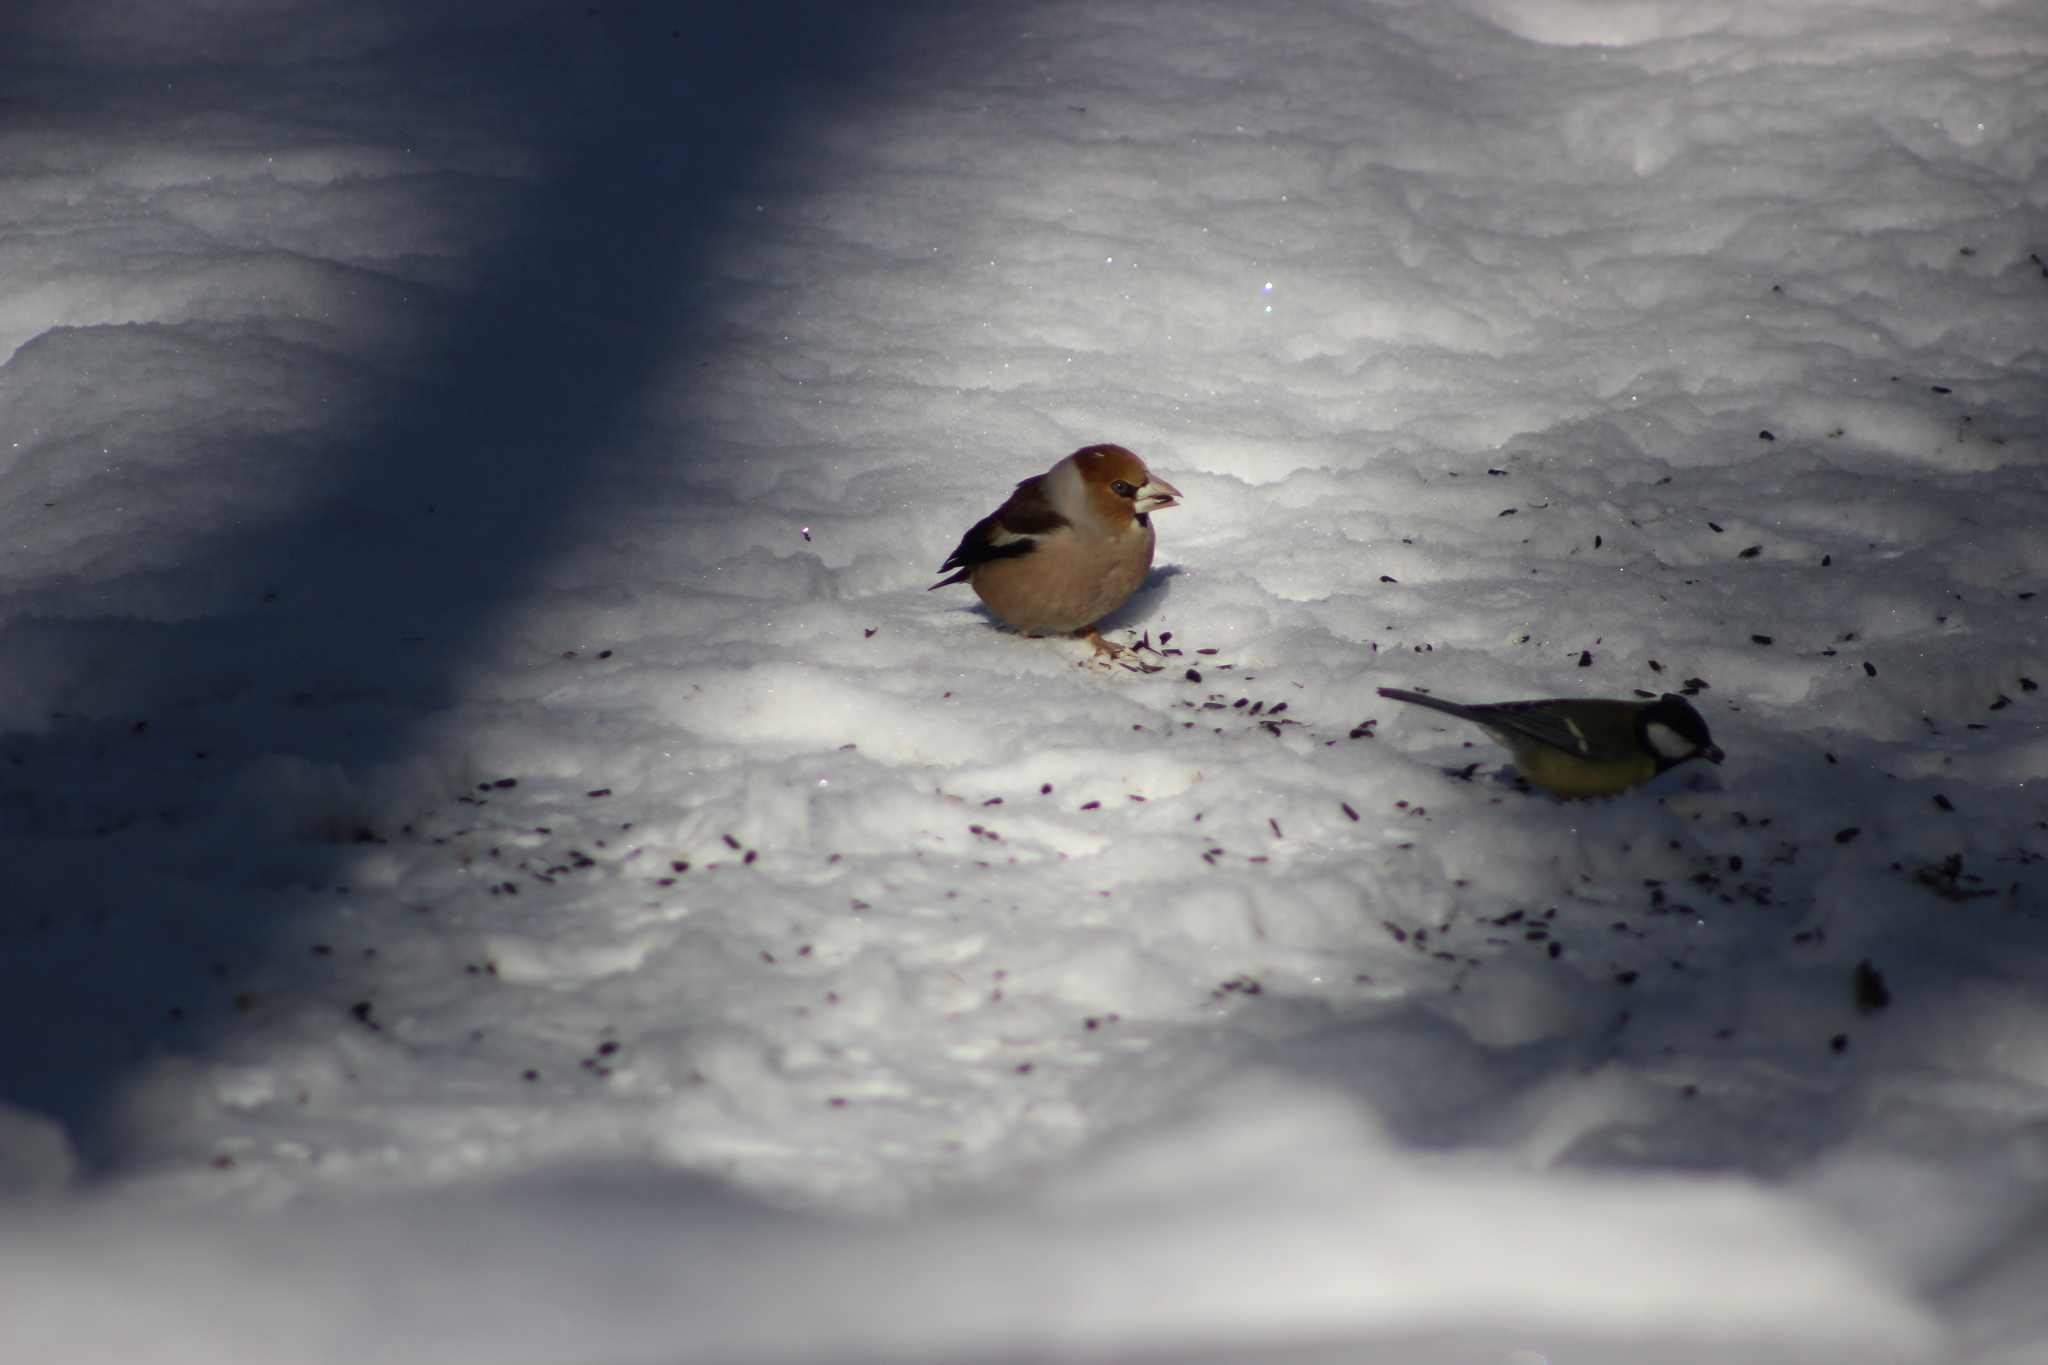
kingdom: Animalia
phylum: Chordata
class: Aves
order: Passeriformes
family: Fringillidae
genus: Coccothraustes
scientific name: Coccothraustes coccothraustes
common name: Hawfinch
